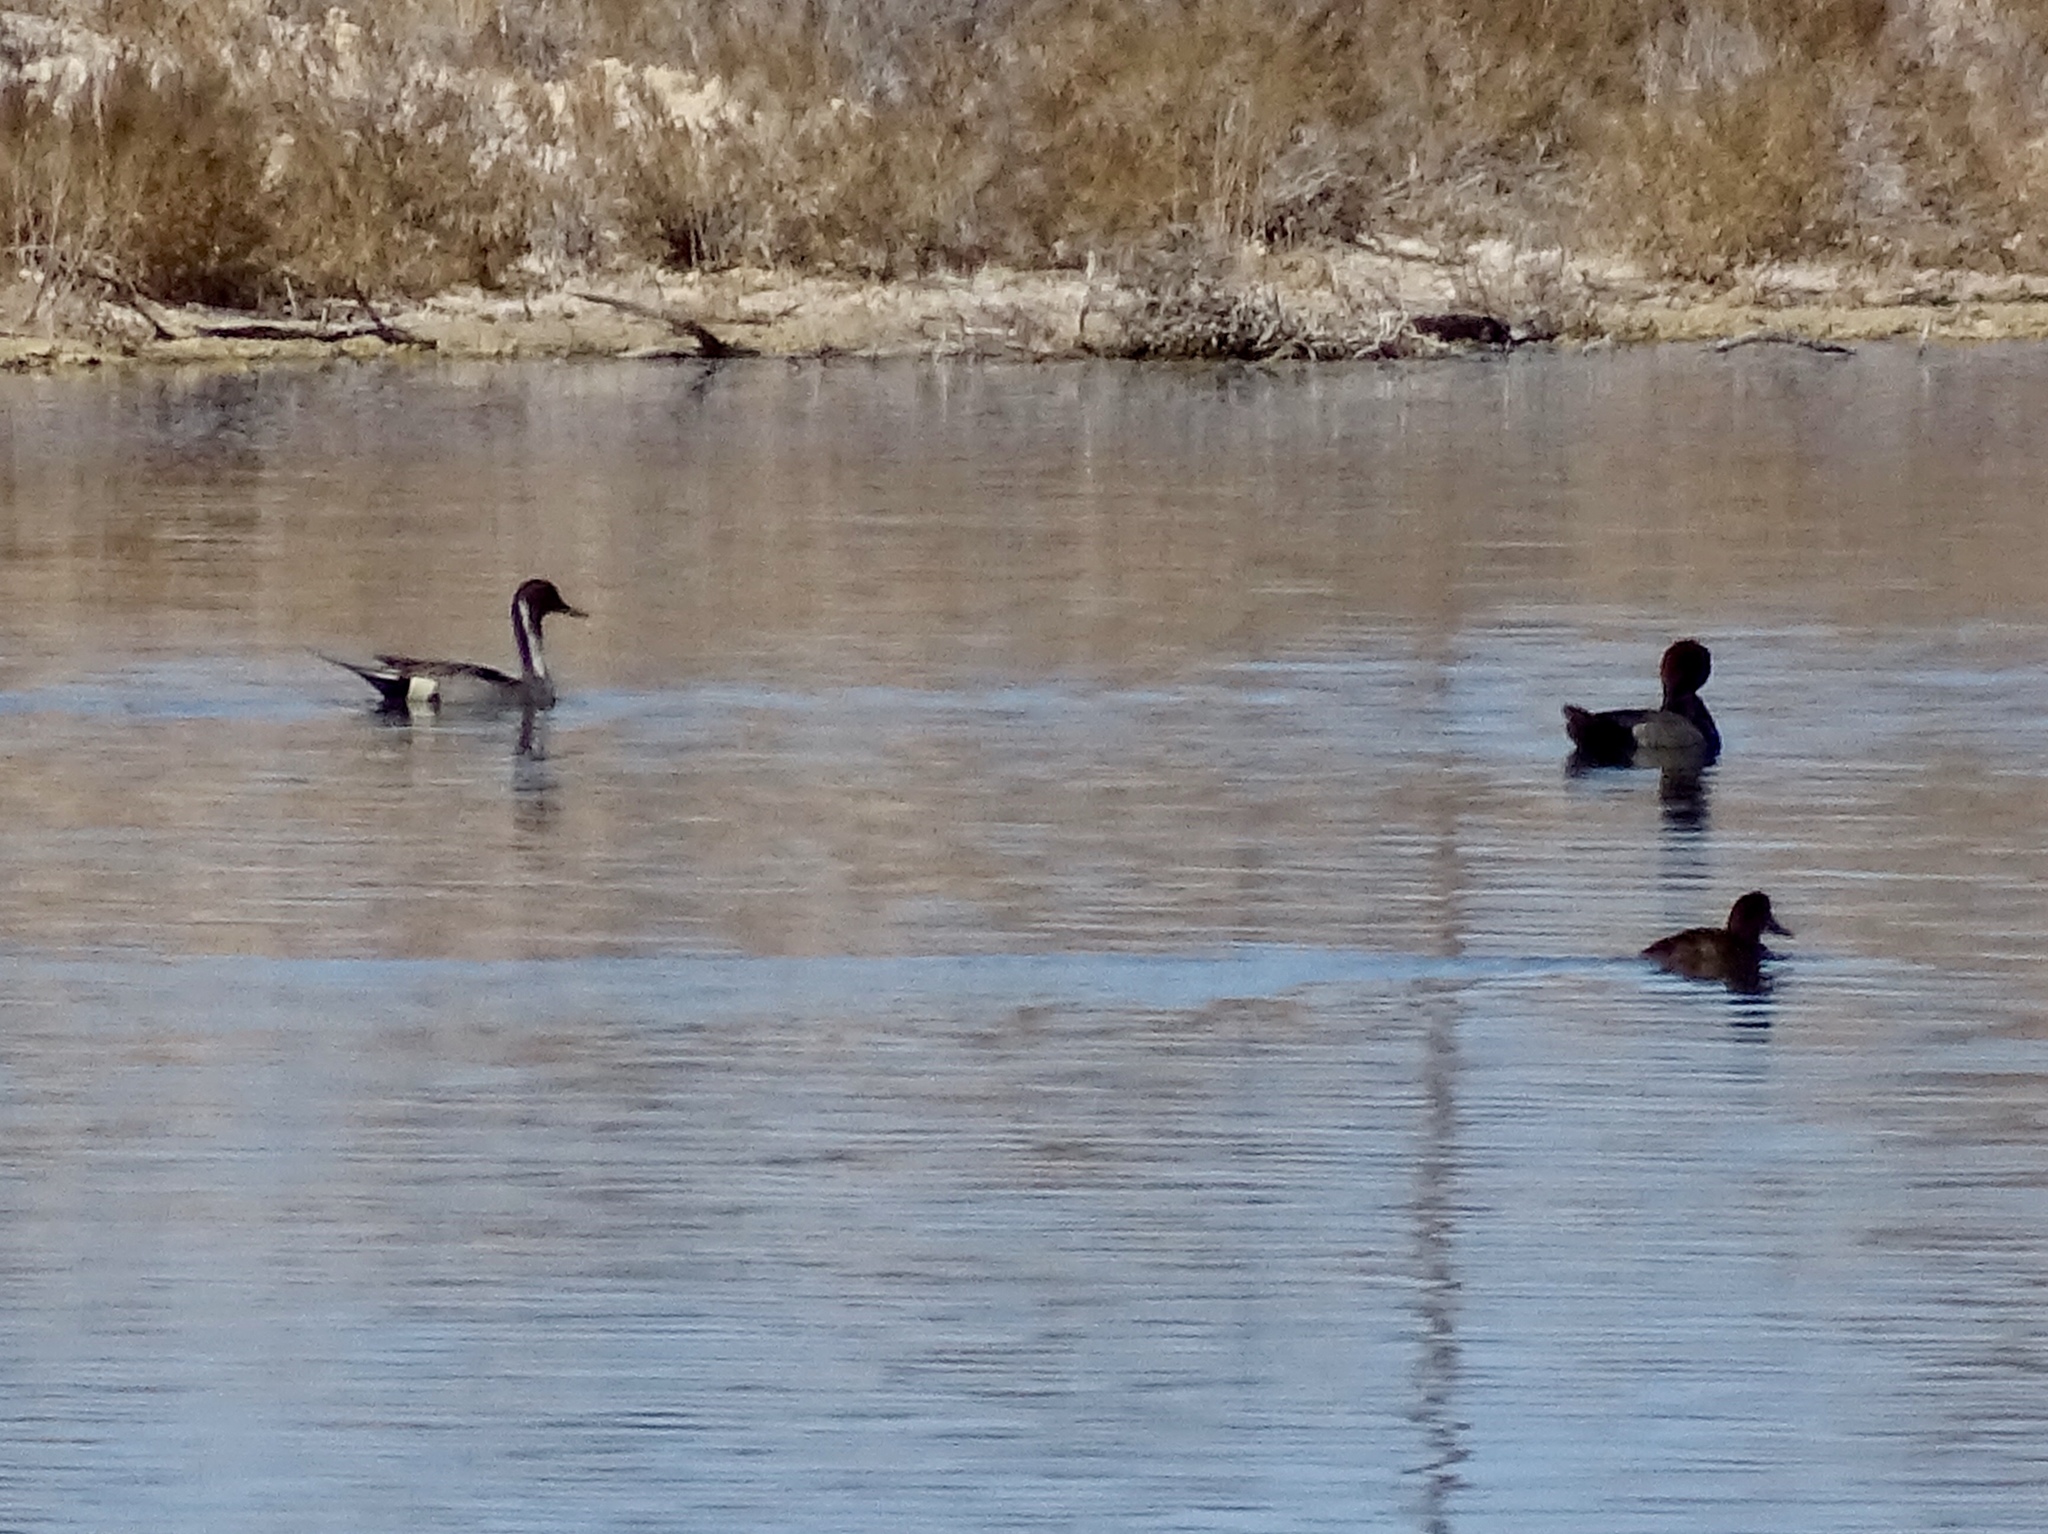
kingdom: Animalia
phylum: Chordata
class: Aves
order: Anseriformes
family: Anatidae
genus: Aythya
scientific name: Aythya americana
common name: Redhead
